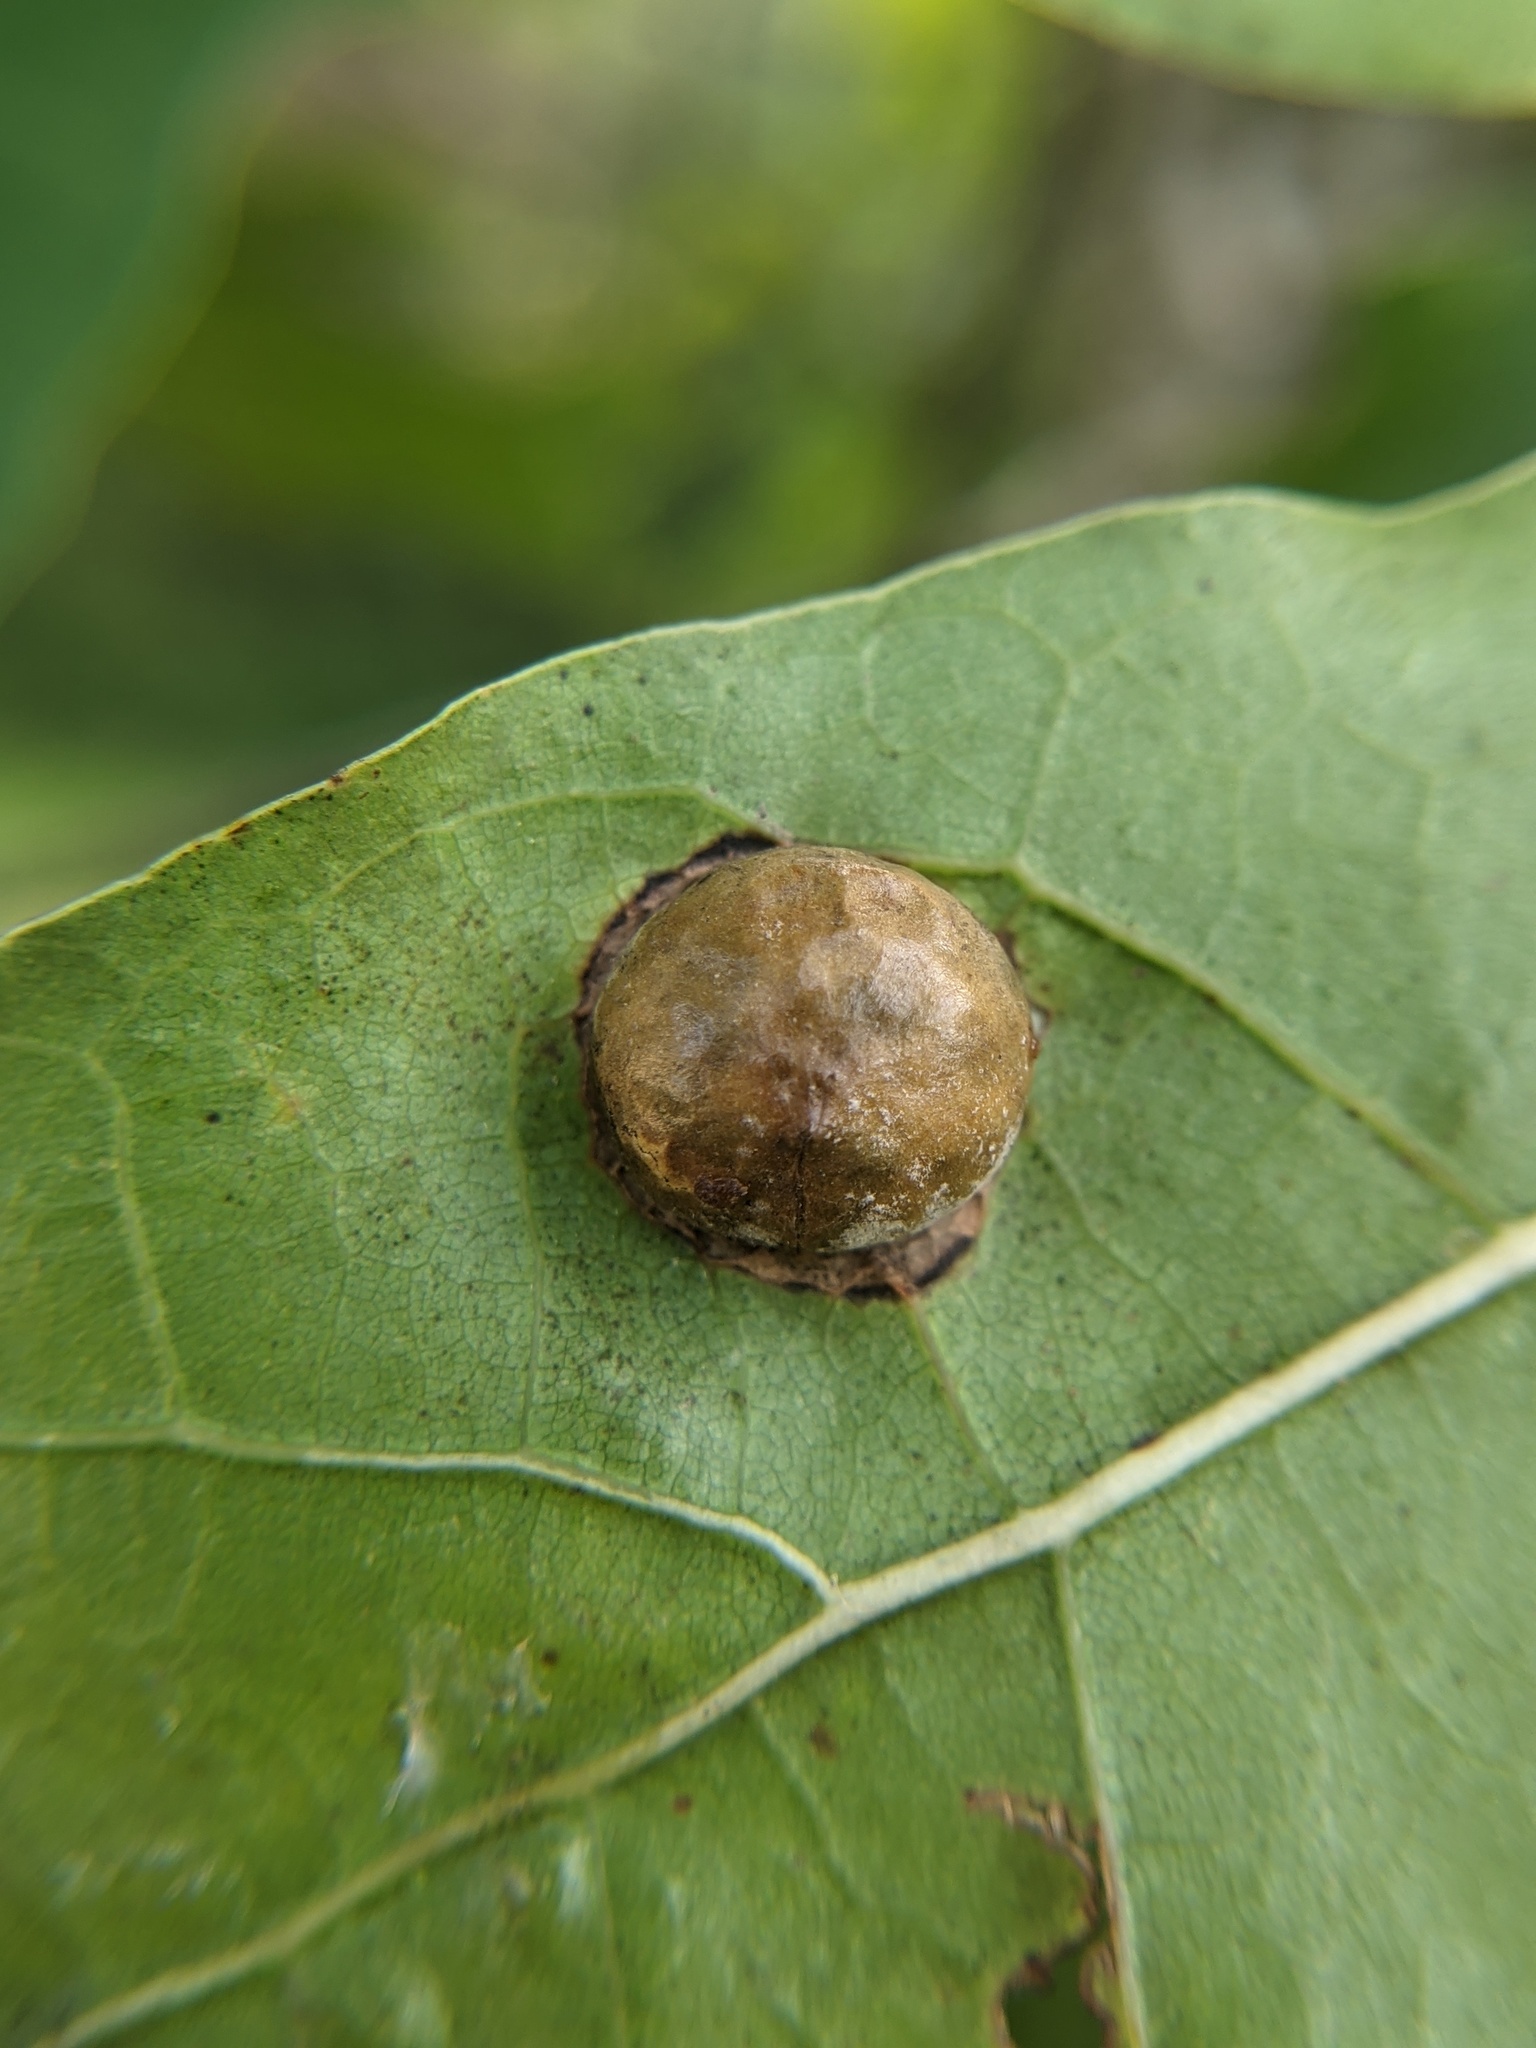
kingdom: Animalia
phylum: Arthropoda
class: Insecta
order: Hymenoptera
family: Cynipidae
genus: Amphibolips
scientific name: Amphibolips
